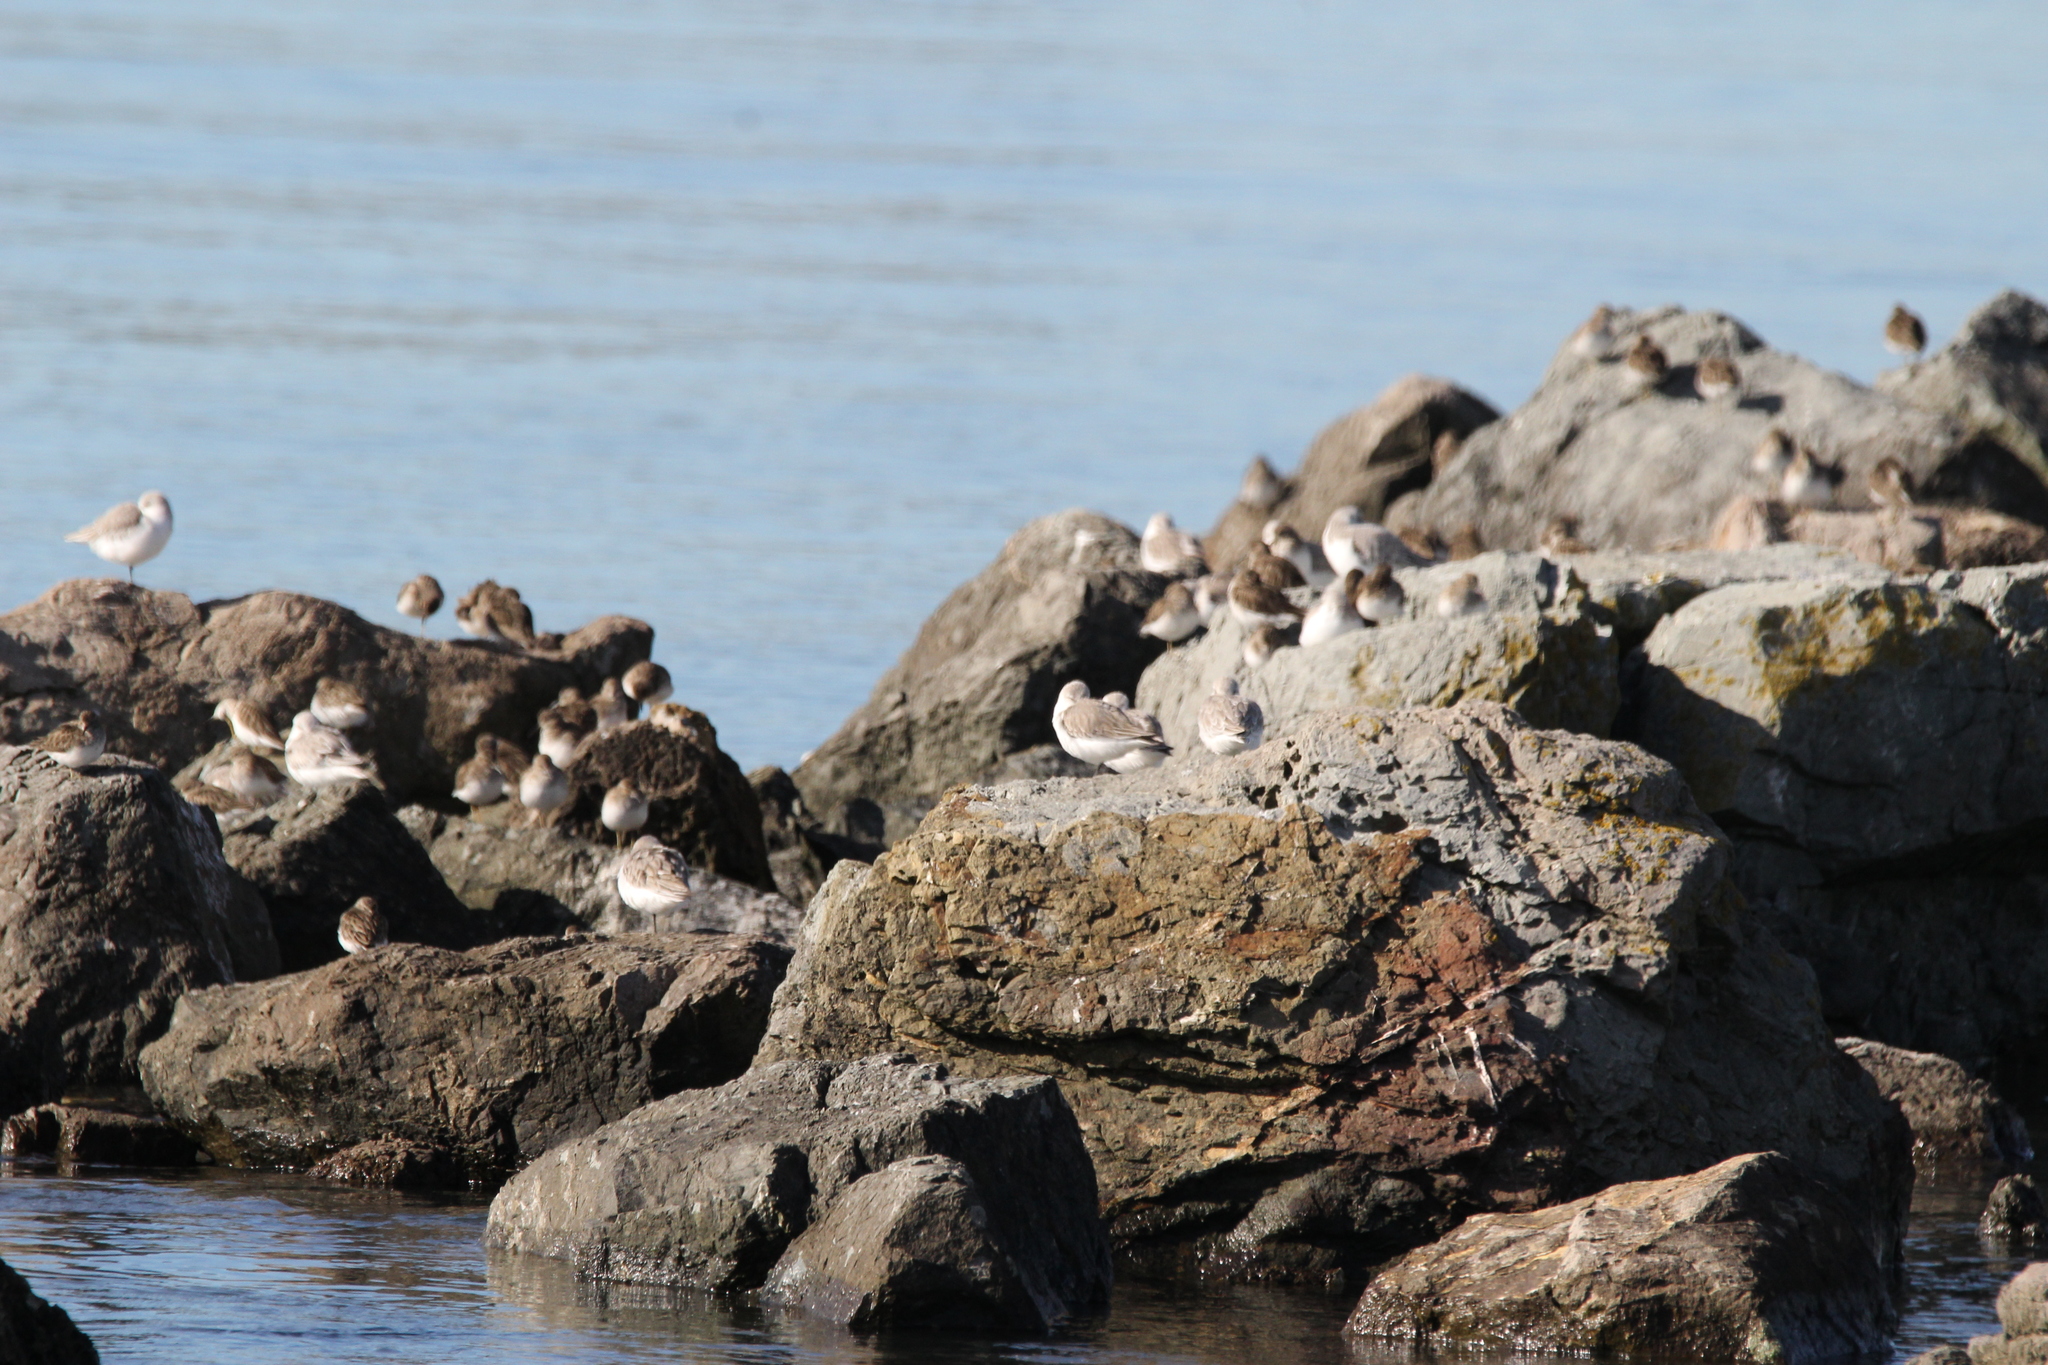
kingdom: Animalia
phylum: Chordata
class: Aves
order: Charadriiformes
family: Scolopacidae
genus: Calidris
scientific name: Calidris alba
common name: Sanderling
